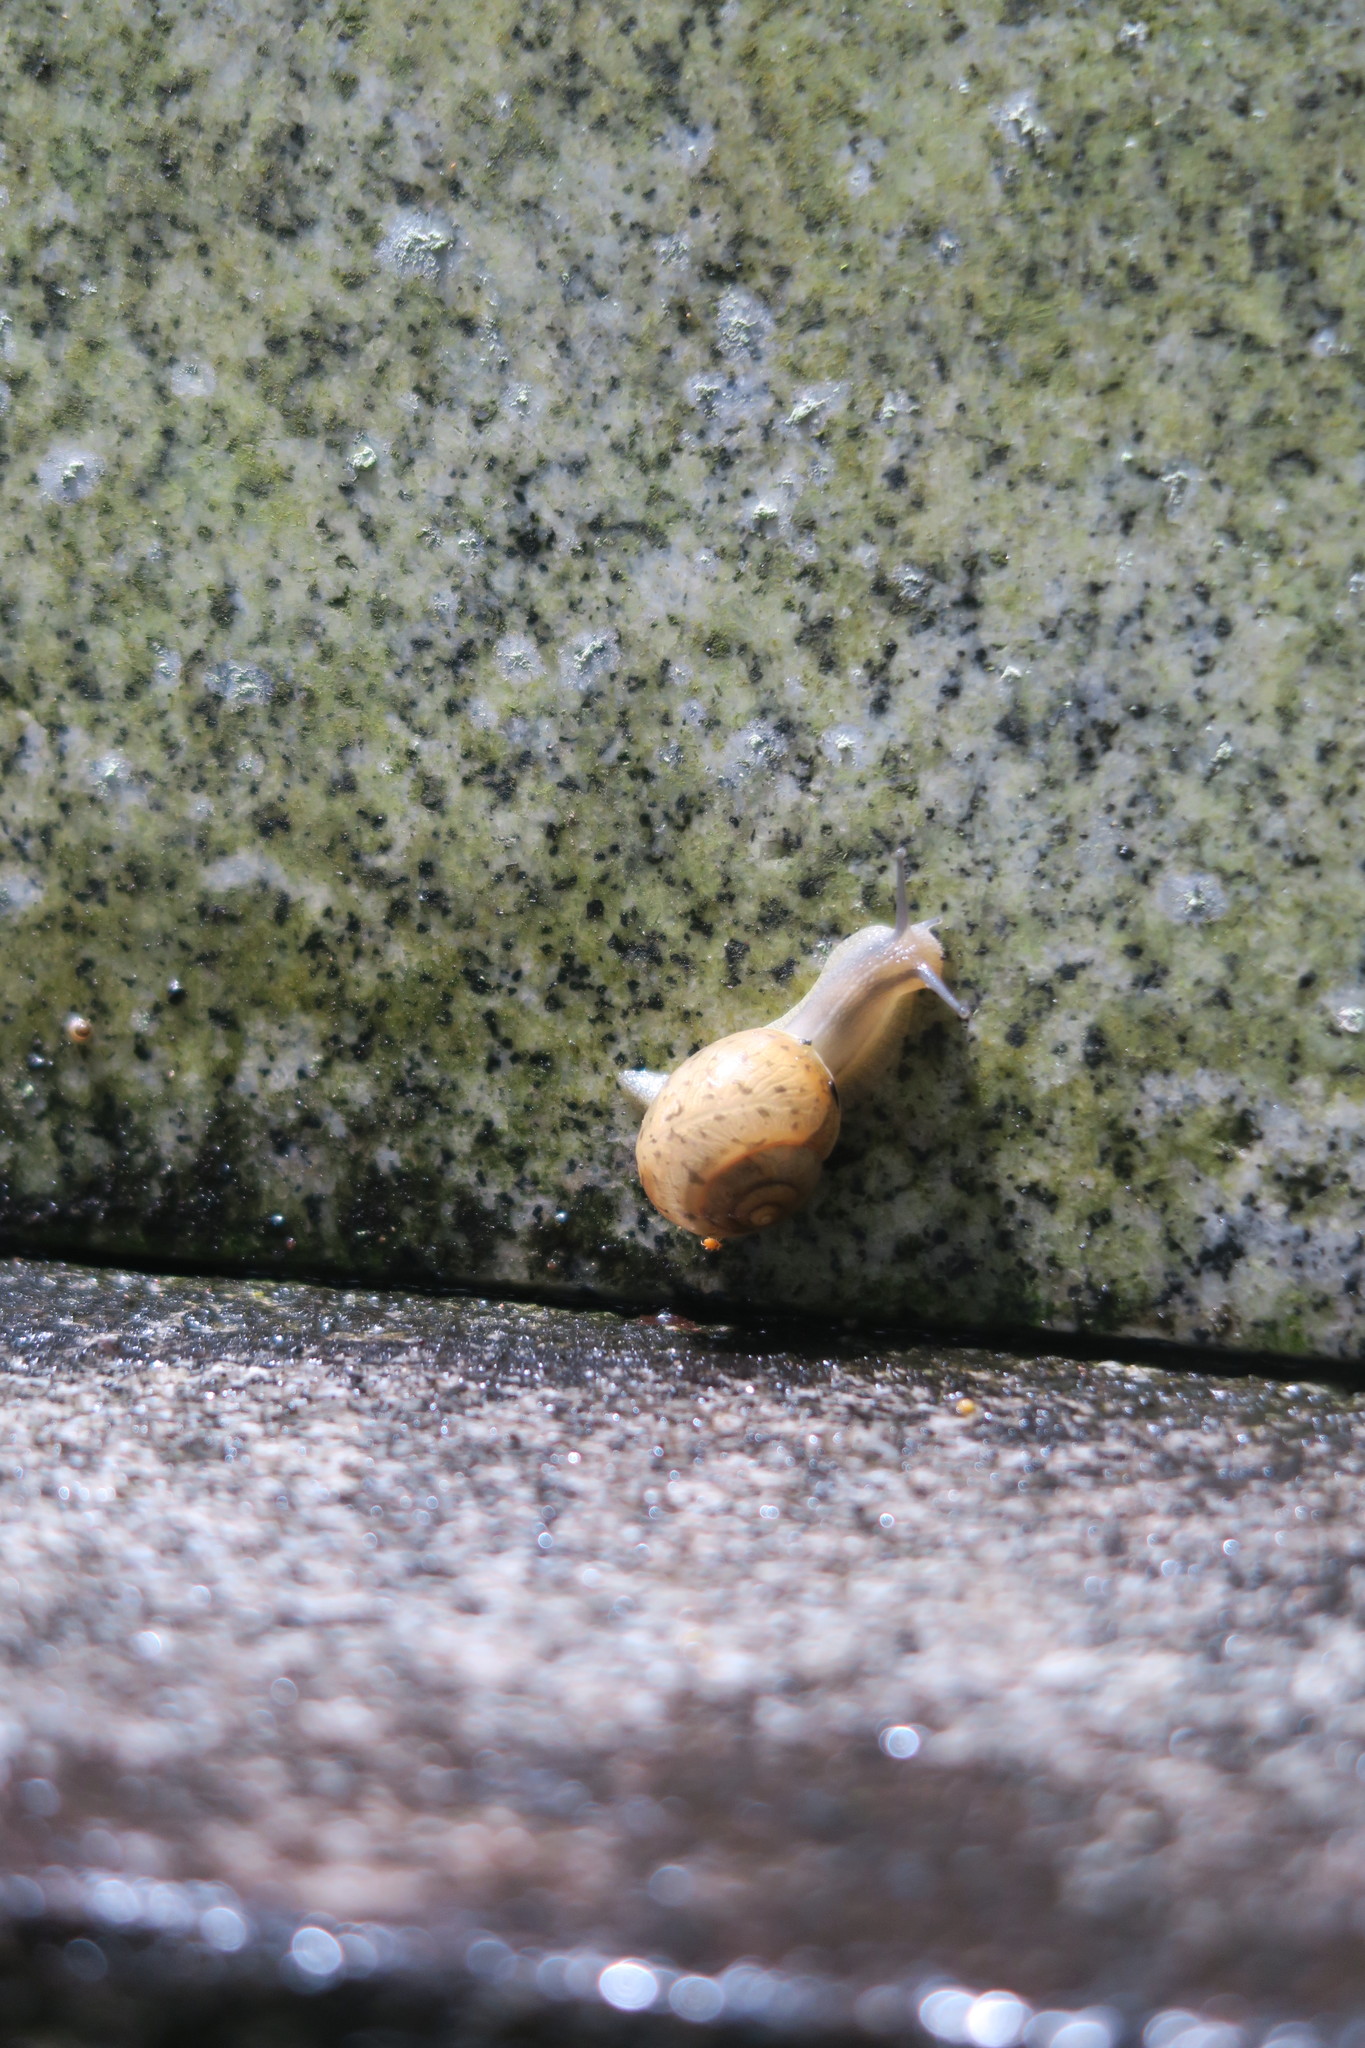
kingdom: Animalia
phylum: Mollusca
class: Gastropoda
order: Stylommatophora
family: Camaenidae
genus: Acusta
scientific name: Acusta despecta
